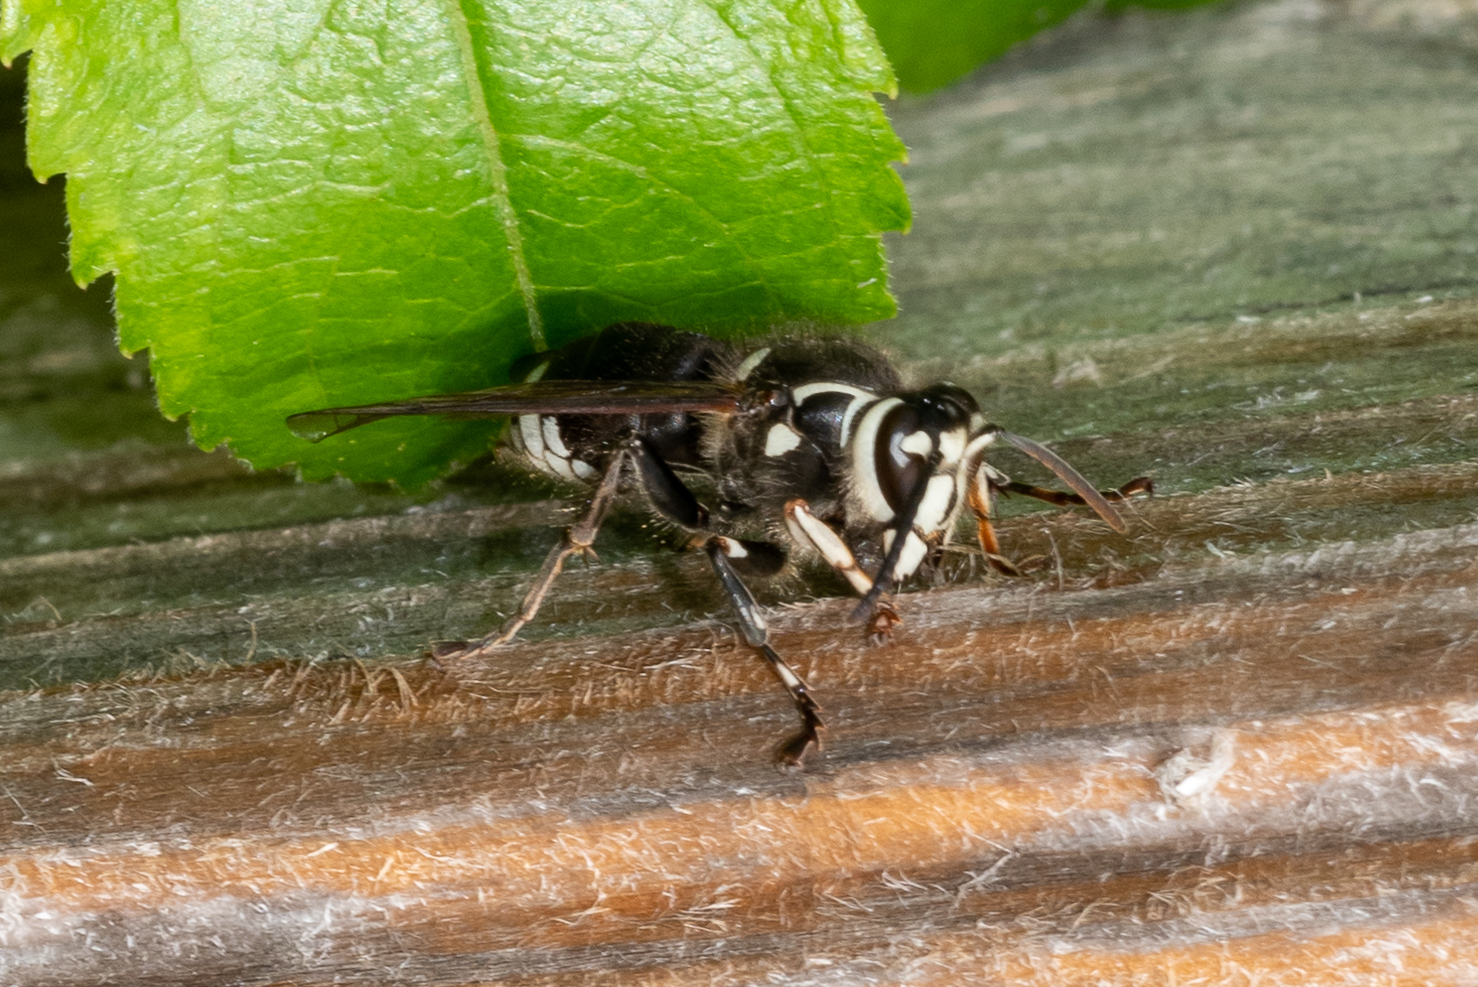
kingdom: Animalia
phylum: Arthropoda
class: Insecta
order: Hymenoptera
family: Vespidae
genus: Dolichovespula
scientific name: Dolichovespula maculata
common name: Bald-faced hornet
